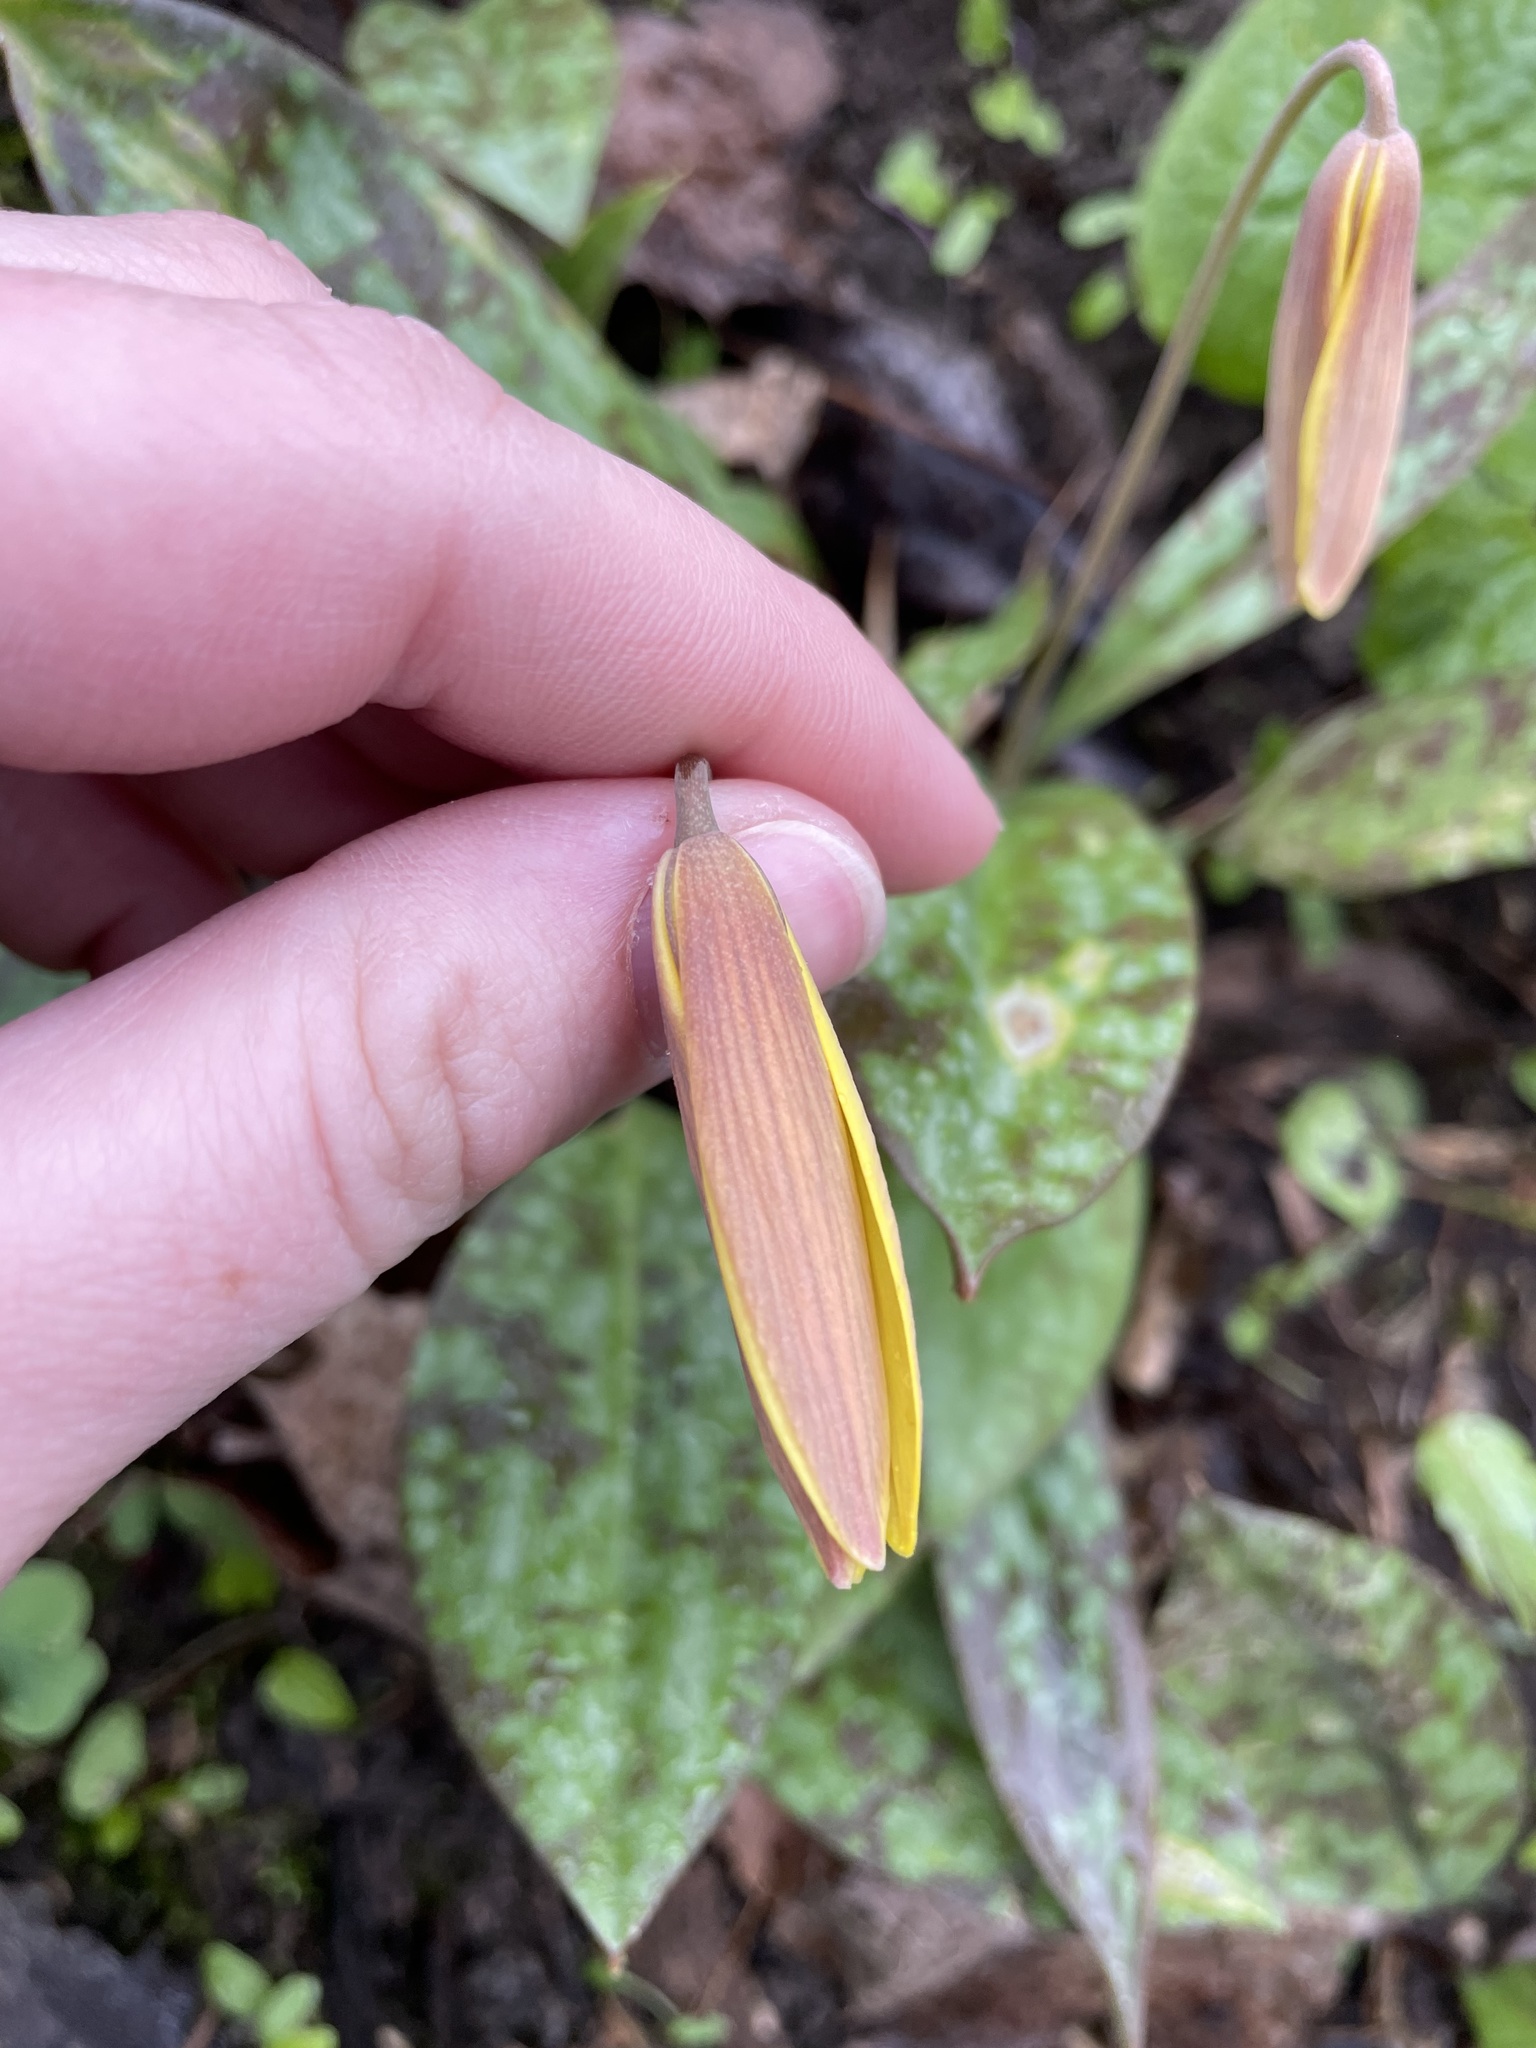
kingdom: Plantae
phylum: Tracheophyta
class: Liliopsida
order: Liliales
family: Liliaceae
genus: Erythronium
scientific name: Erythronium americanum
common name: Yellow adder's-tongue
